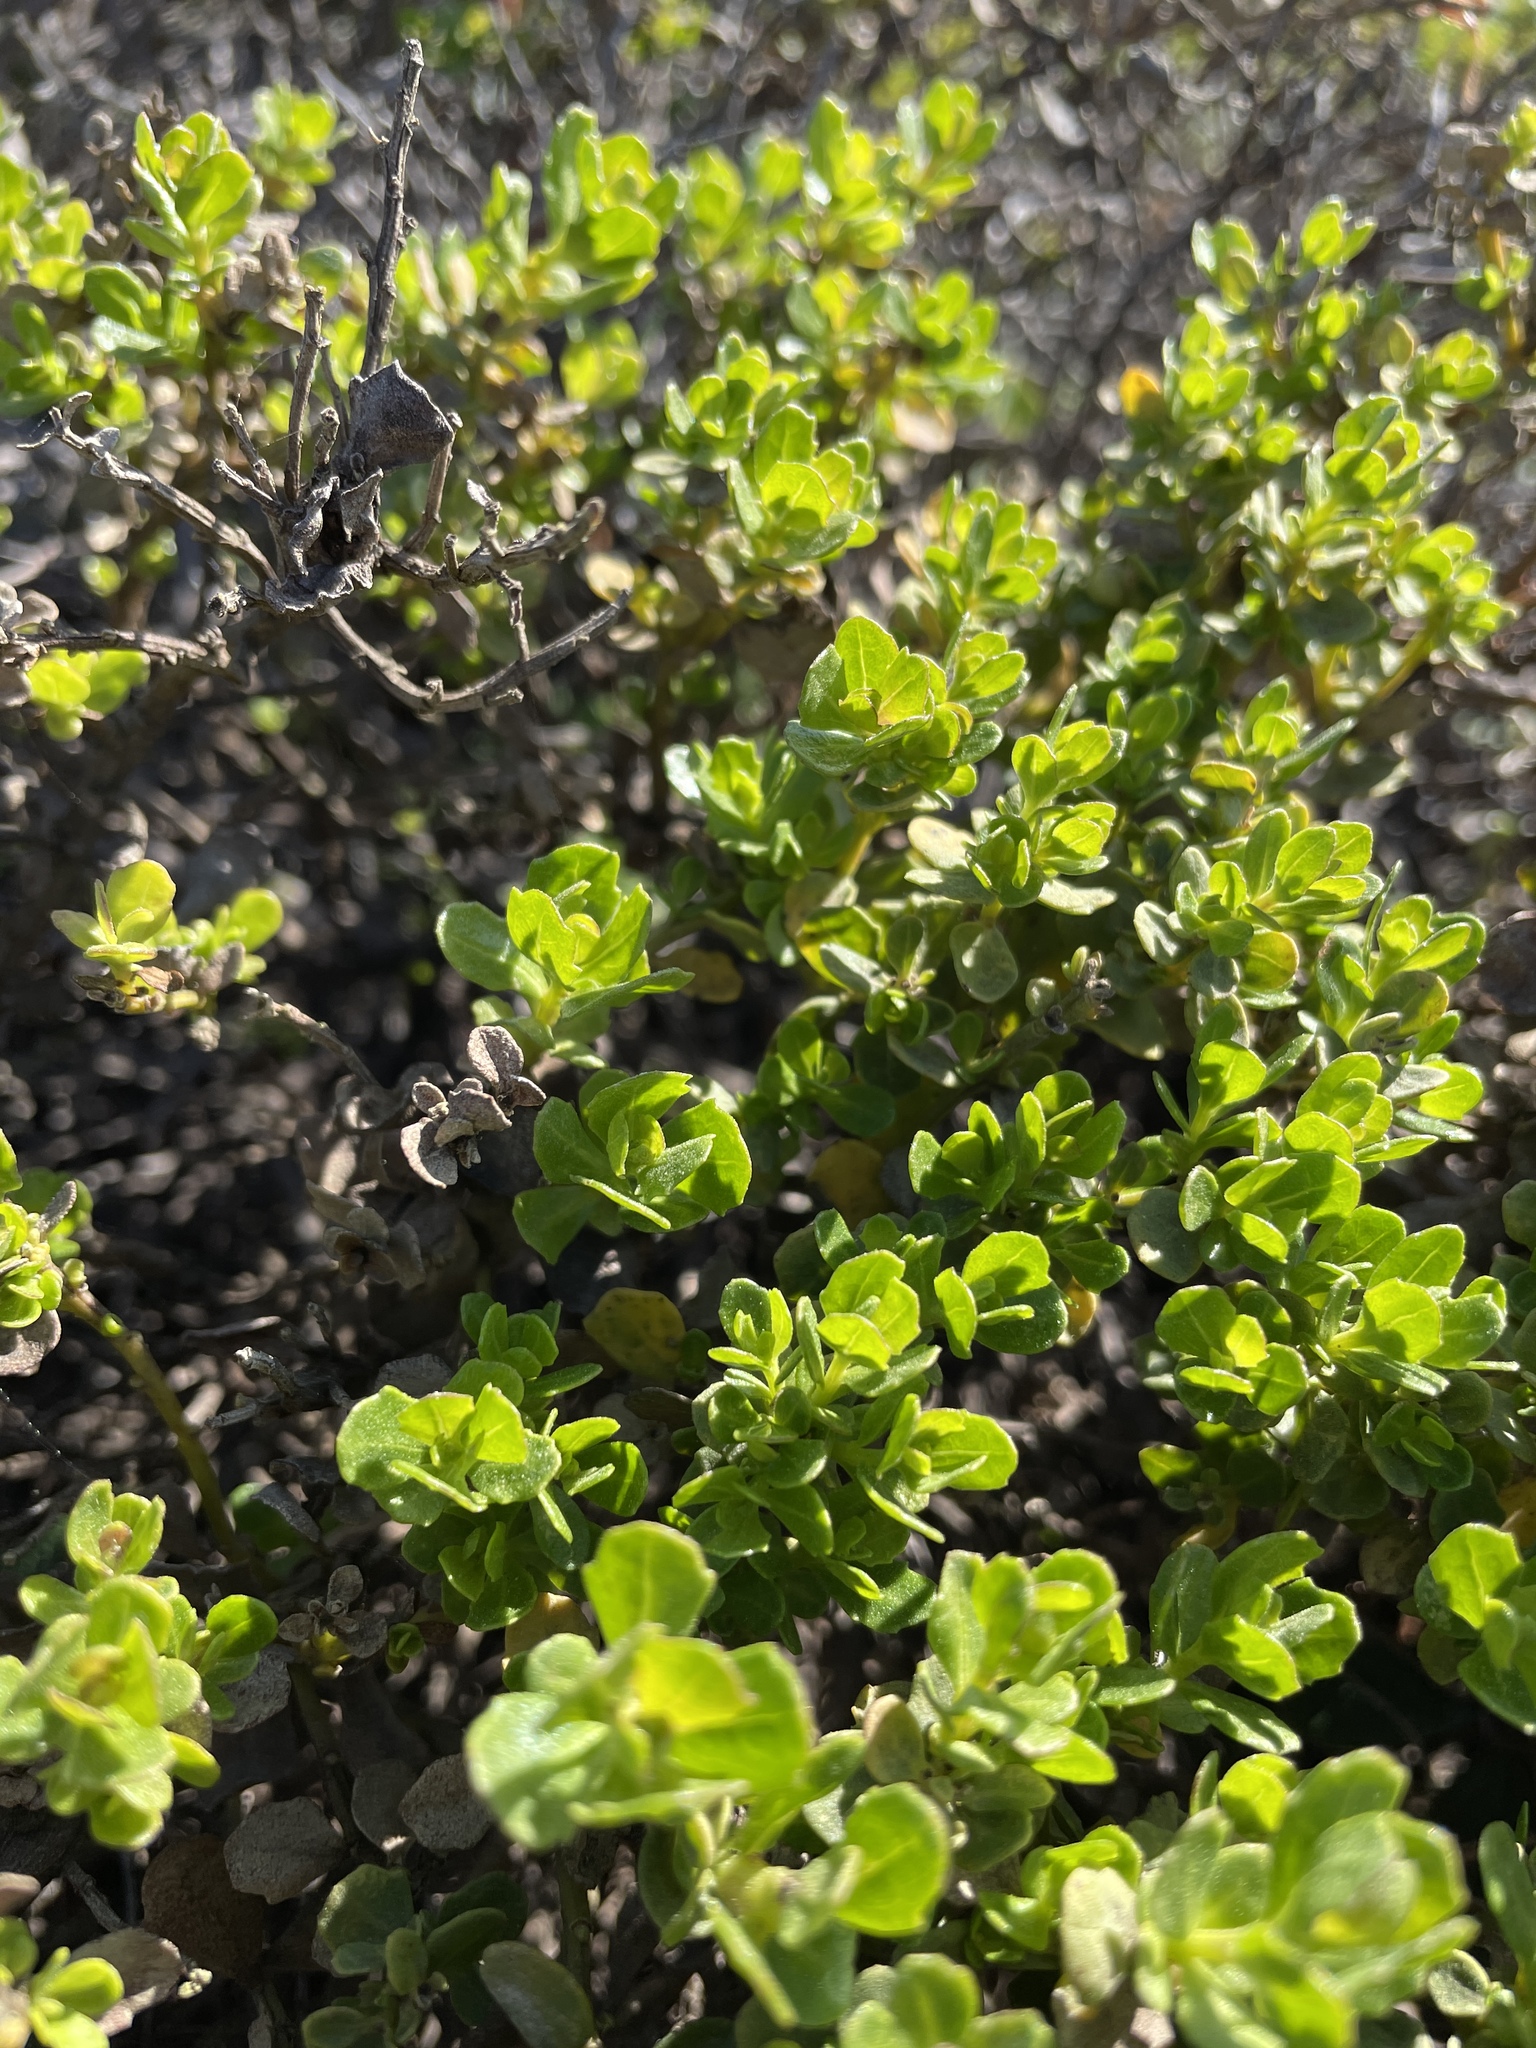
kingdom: Plantae
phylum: Tracheophyta
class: Magnoliopsida
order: Asterales
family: Asteraceae
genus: Baccharis
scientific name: Baccharis pilularis
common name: Coyotebrush
